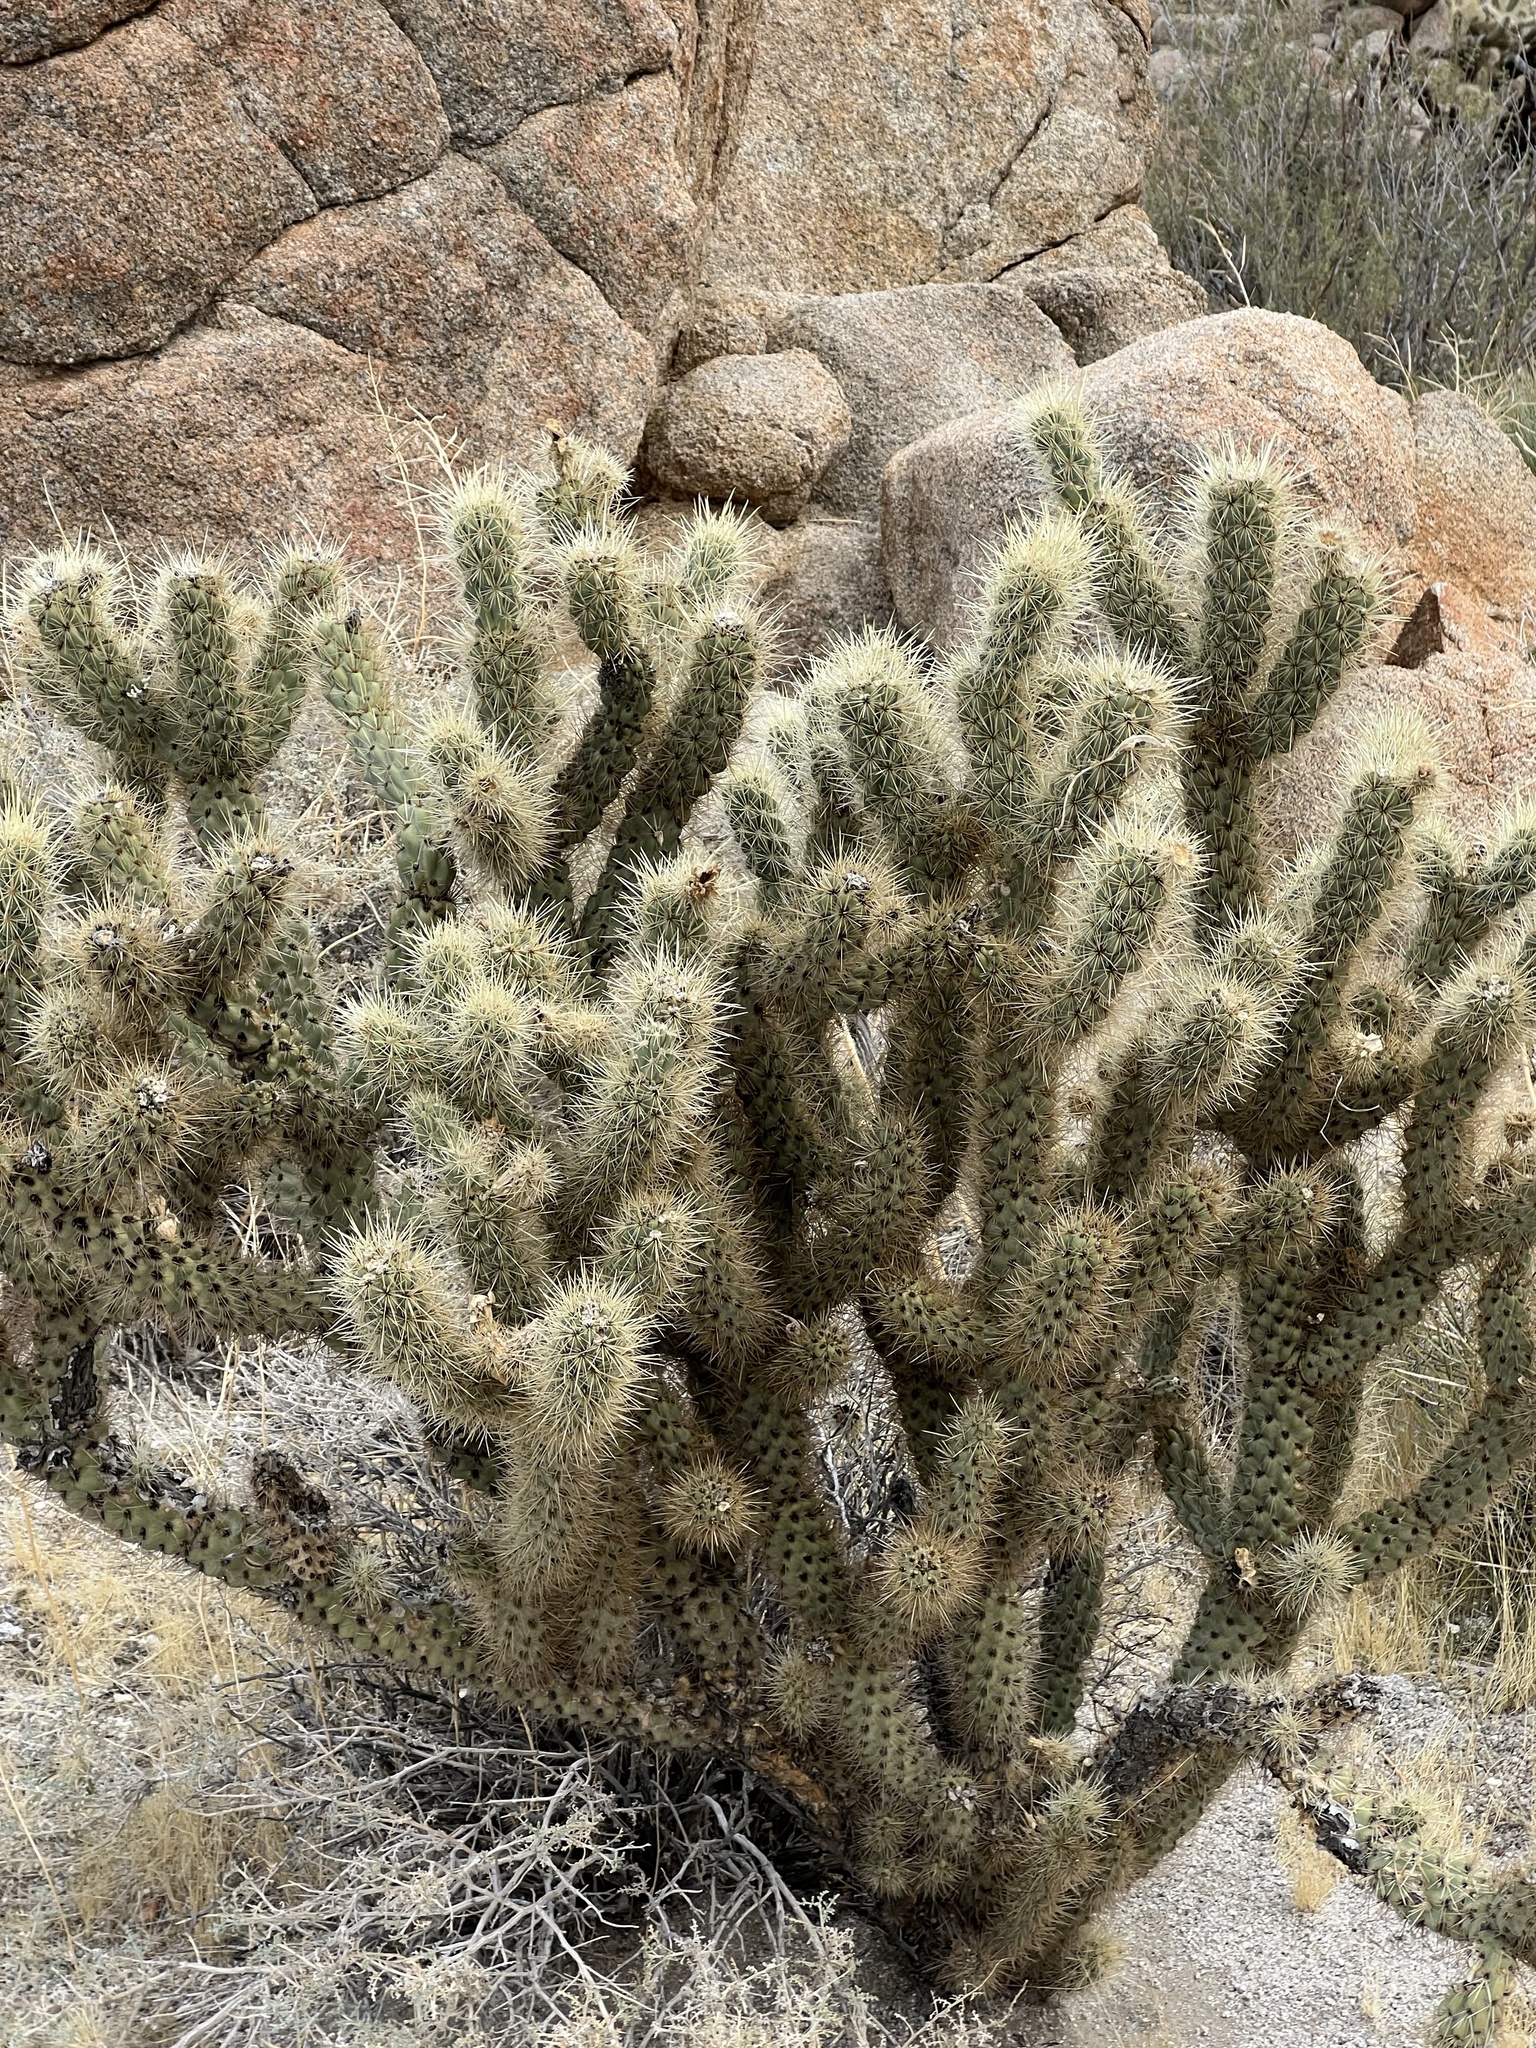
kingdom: Plantae
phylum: Tracheophyta
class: Magnoliopsida
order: Caryophyllales
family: Cactaceae
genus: Cylindropuntia
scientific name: Cylindropuntia ganderi
